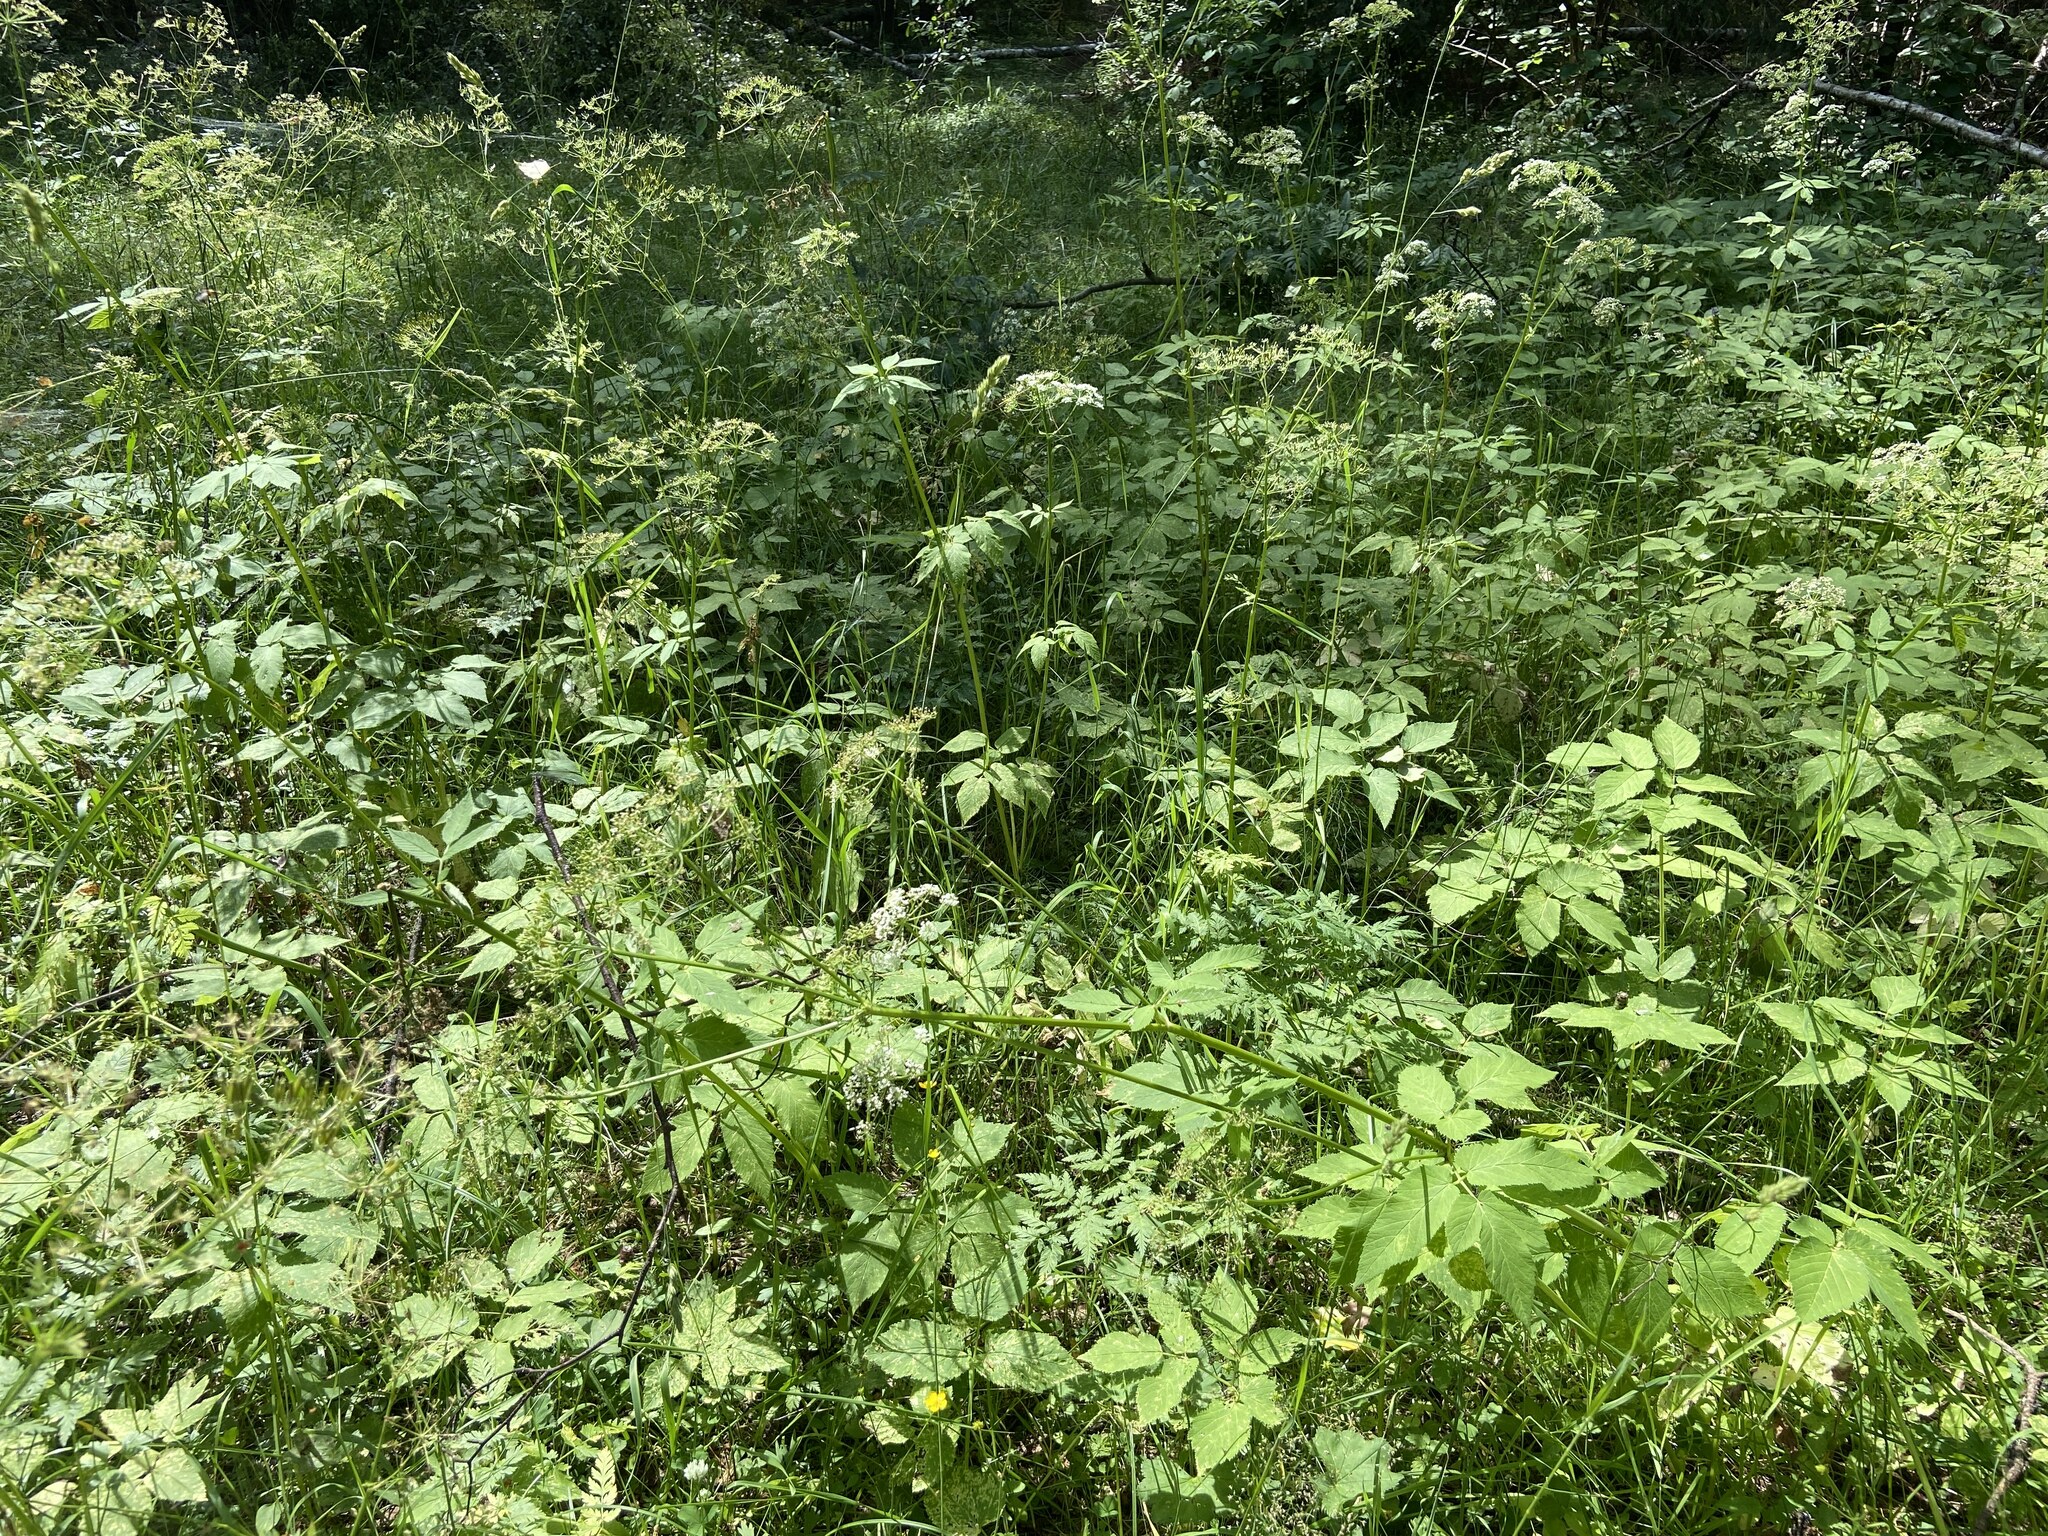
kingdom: Plantae
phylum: Tracheophyta
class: Magnoliopsida
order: Apiales
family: Apiaceae
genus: Aegopodium
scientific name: Aegopodium podagraria
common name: Ground-elder
